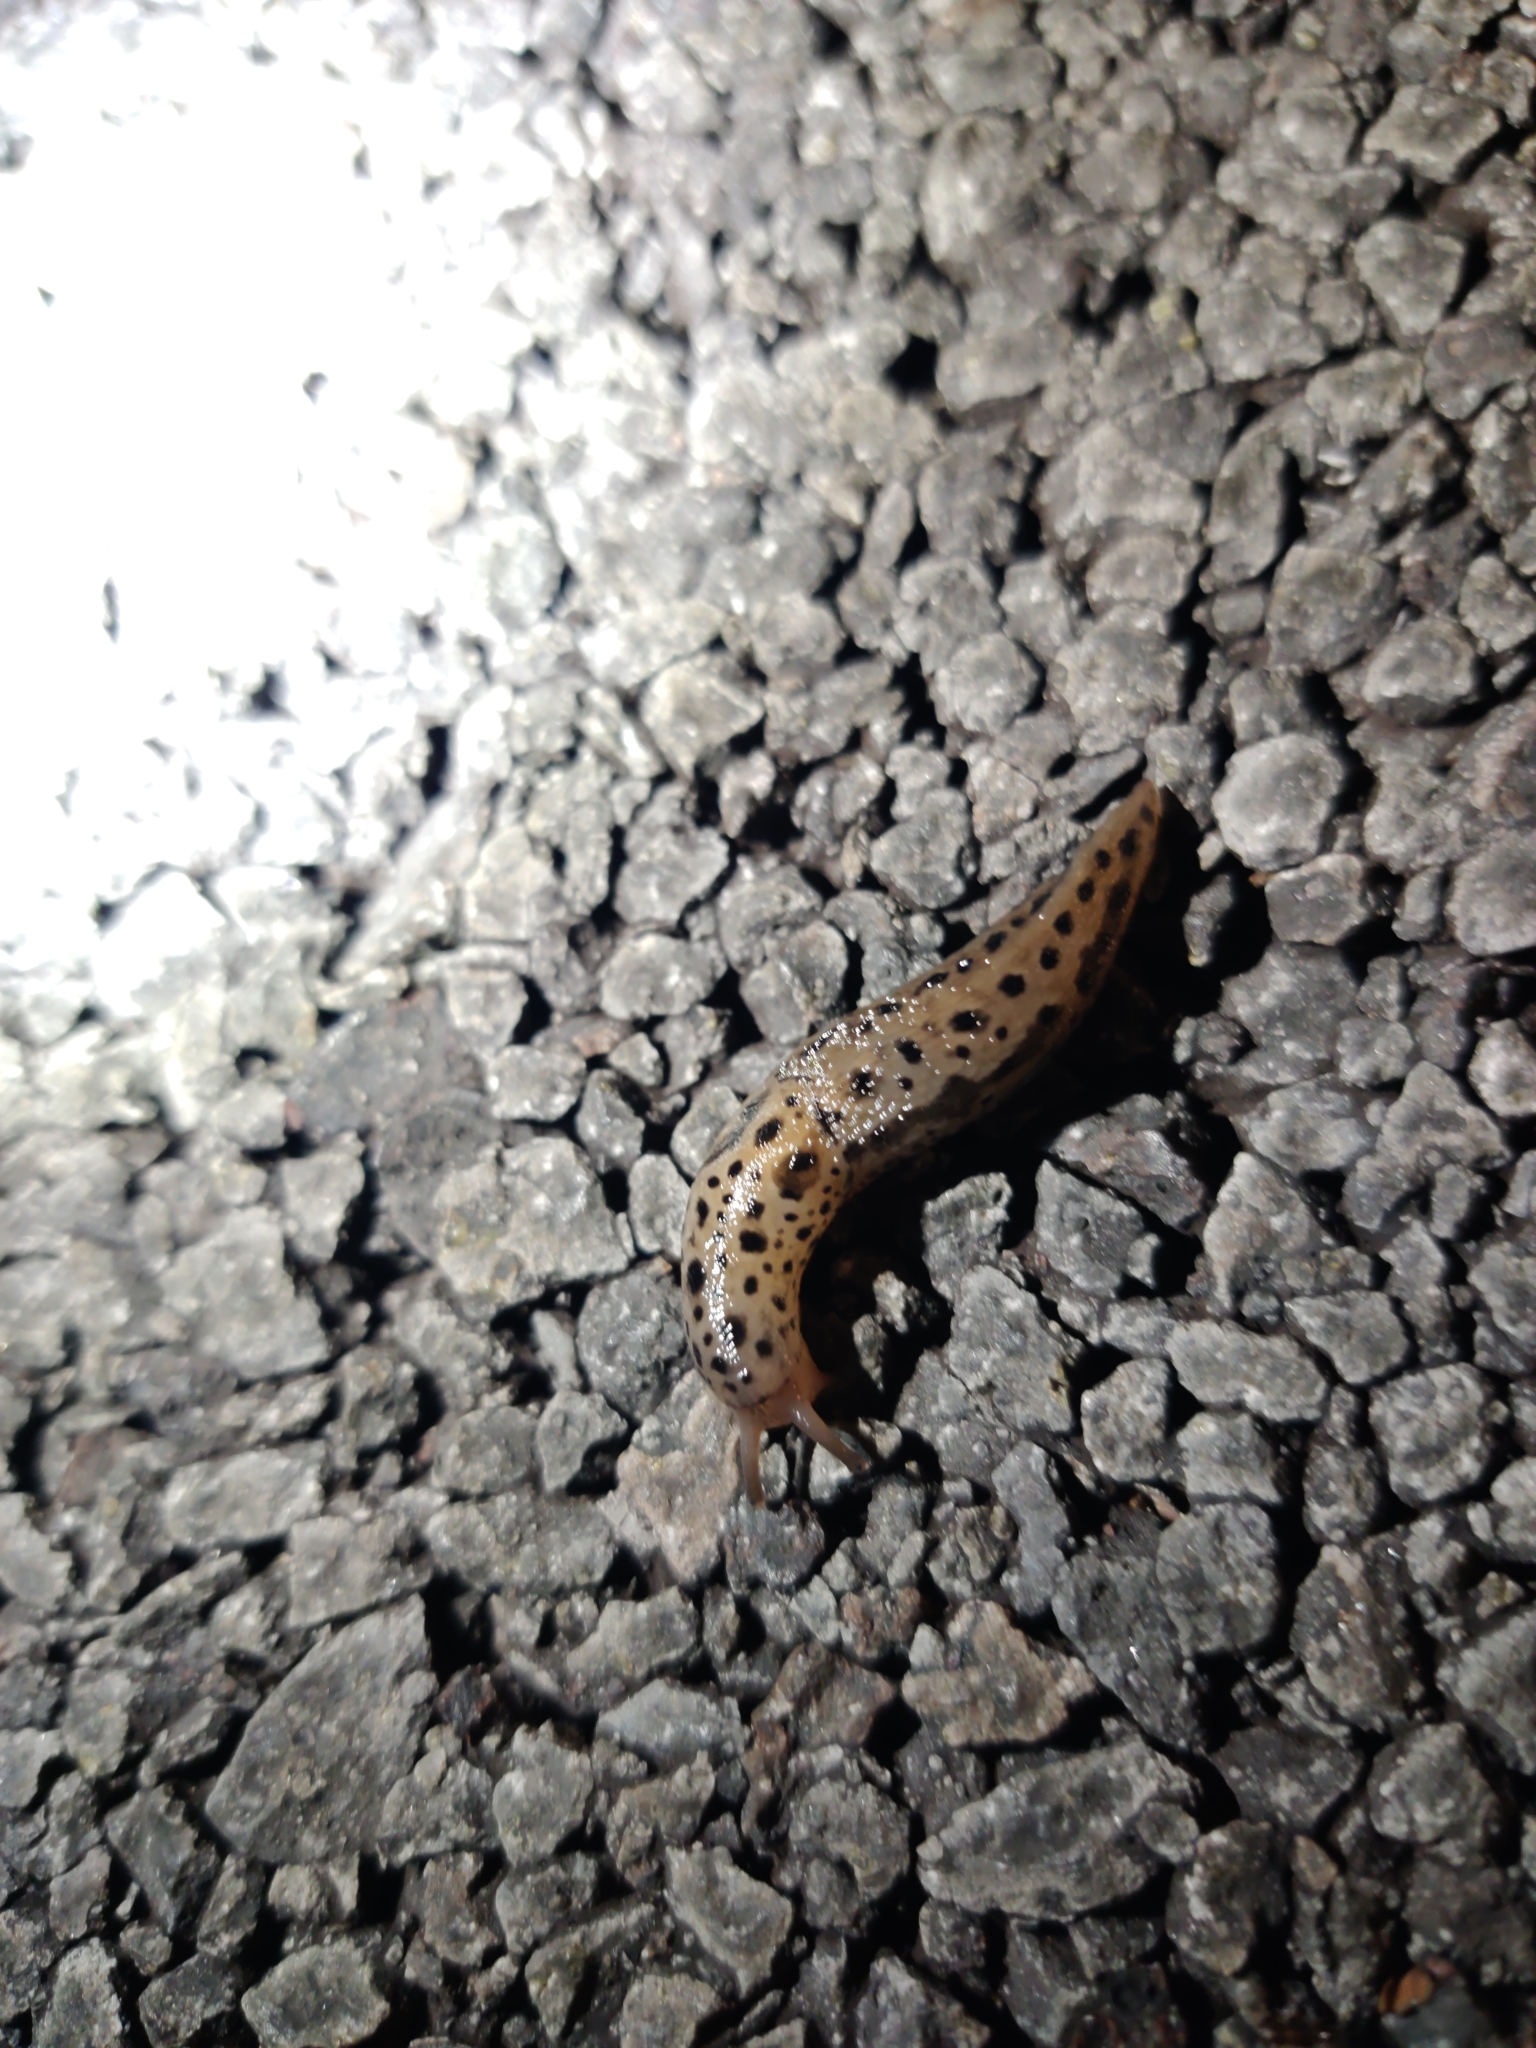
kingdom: Animalia
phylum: Mollusca
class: Gastropoda
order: Stylommatophora
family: Limacidae
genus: Limax
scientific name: Limax maximus
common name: Great grey slug
